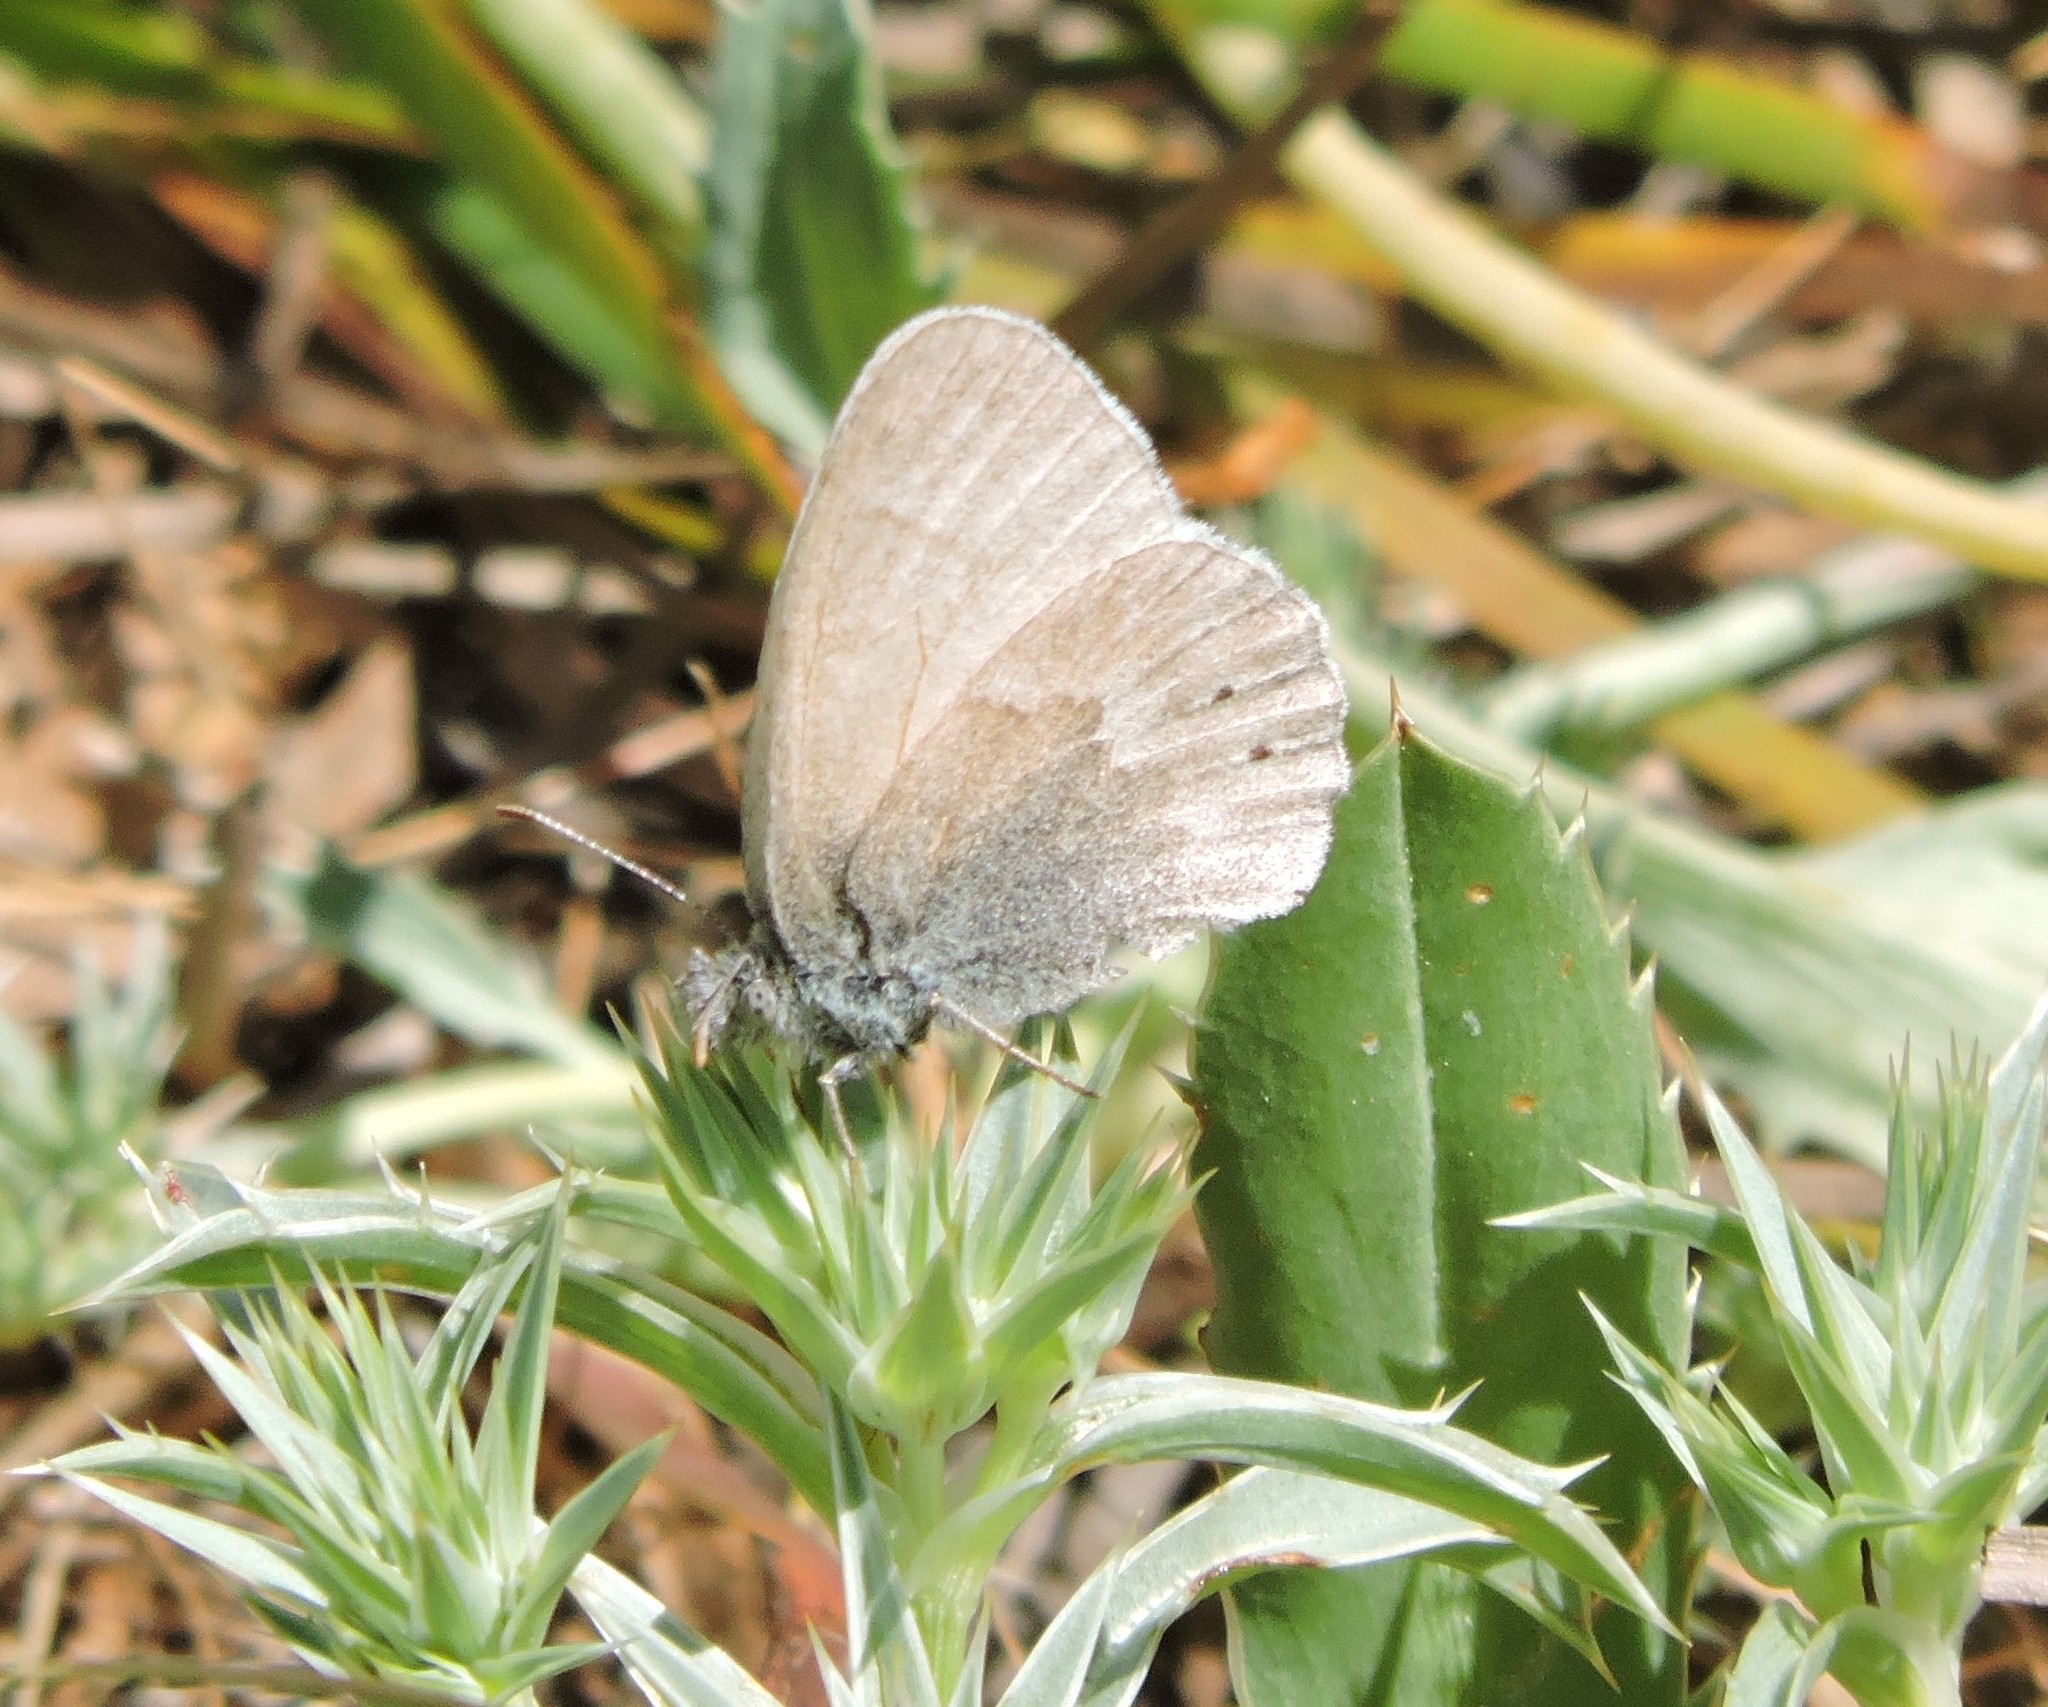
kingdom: Animalia
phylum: Arthropoda
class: Insecta
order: Lepidoptera
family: Nymphalidae
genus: Coenonympha
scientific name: Coenonympha california
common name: Common ringlet
